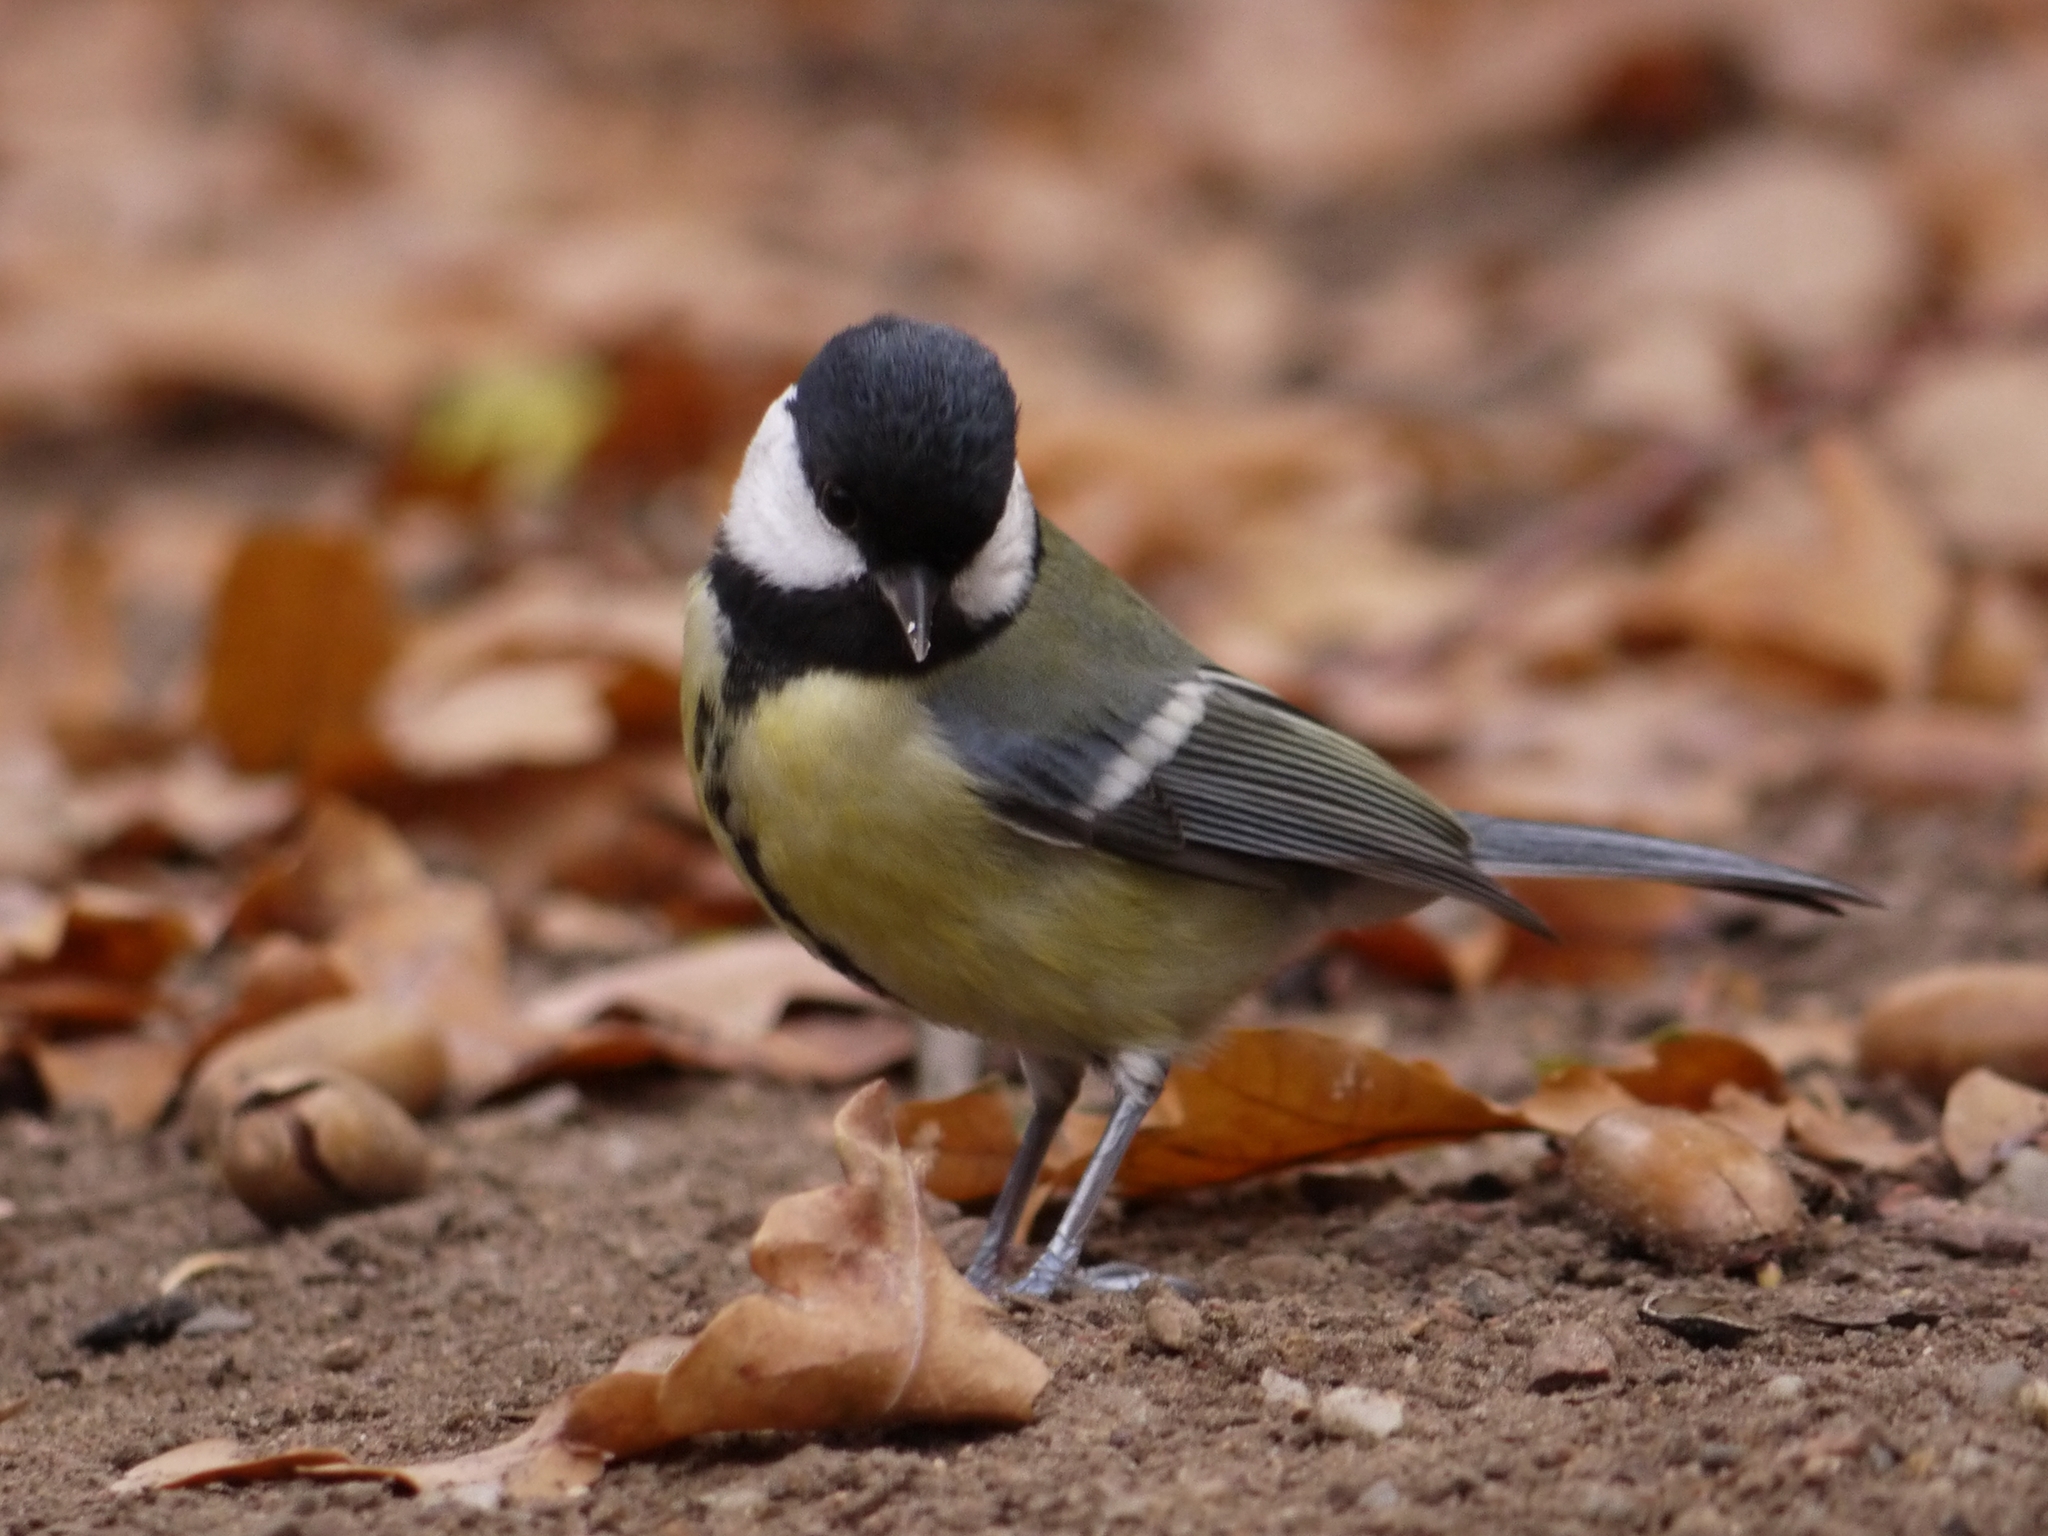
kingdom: Animalia
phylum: Chordata
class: Aves
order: Passeriformes
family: Paridae
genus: Parus
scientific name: Parus major
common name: Great tit
